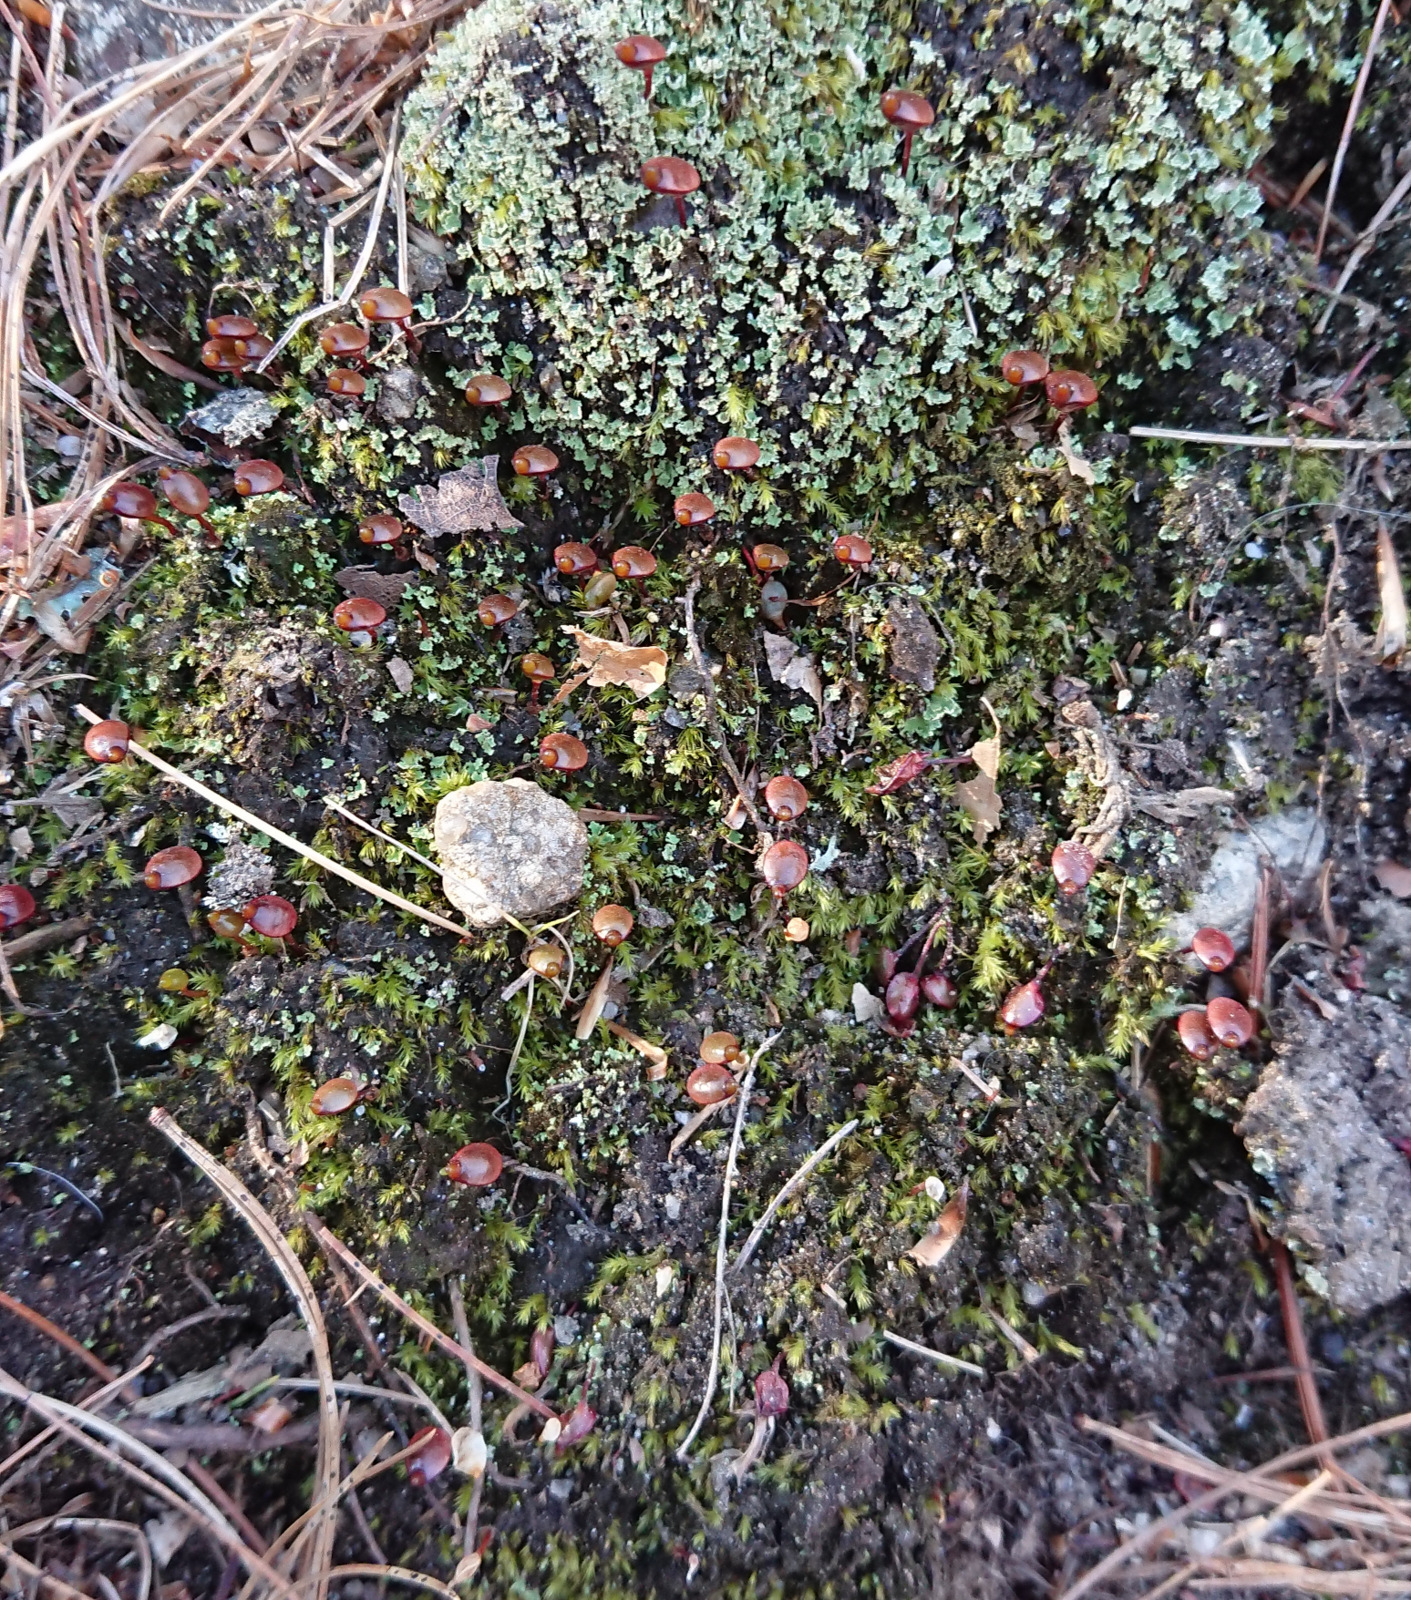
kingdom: Plantae
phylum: Bryophyta
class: Bryopsida
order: Buxbaumiales
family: Buxbaumiaceae
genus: Buxbaumia
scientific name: Buxbaumia aphylla
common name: Brown shield-moss
